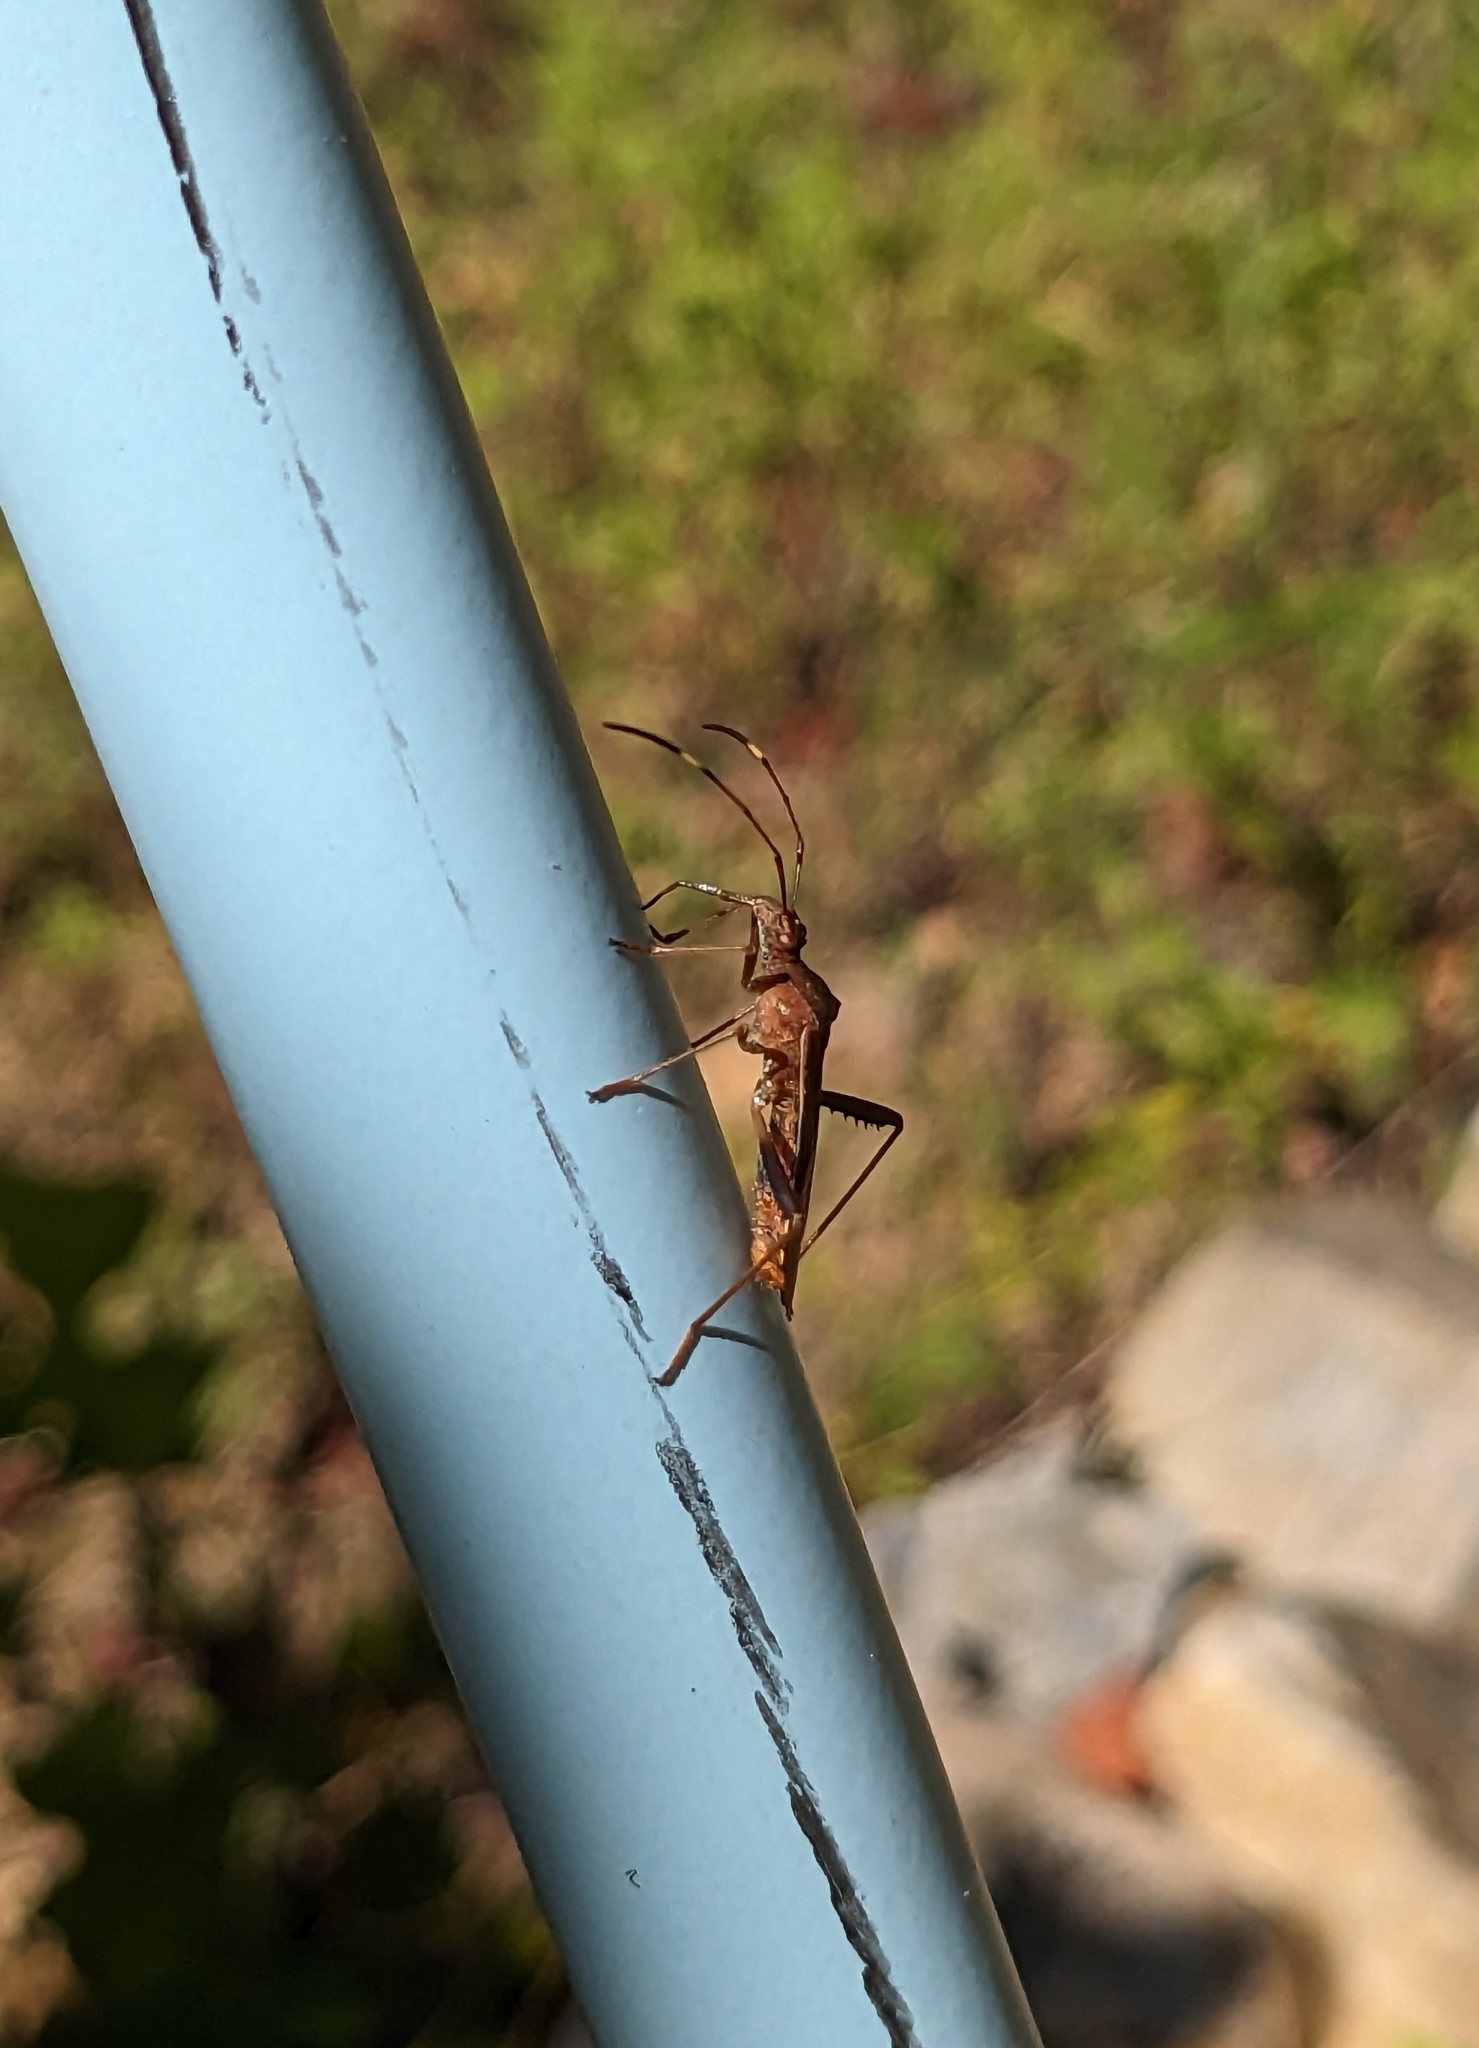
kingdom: Animalia
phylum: Arthropoda
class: Insecta
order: Hemiptera
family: Alydidae
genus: Megalotomus
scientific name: Megalotomus quinquespinosus
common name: Lupine bug
